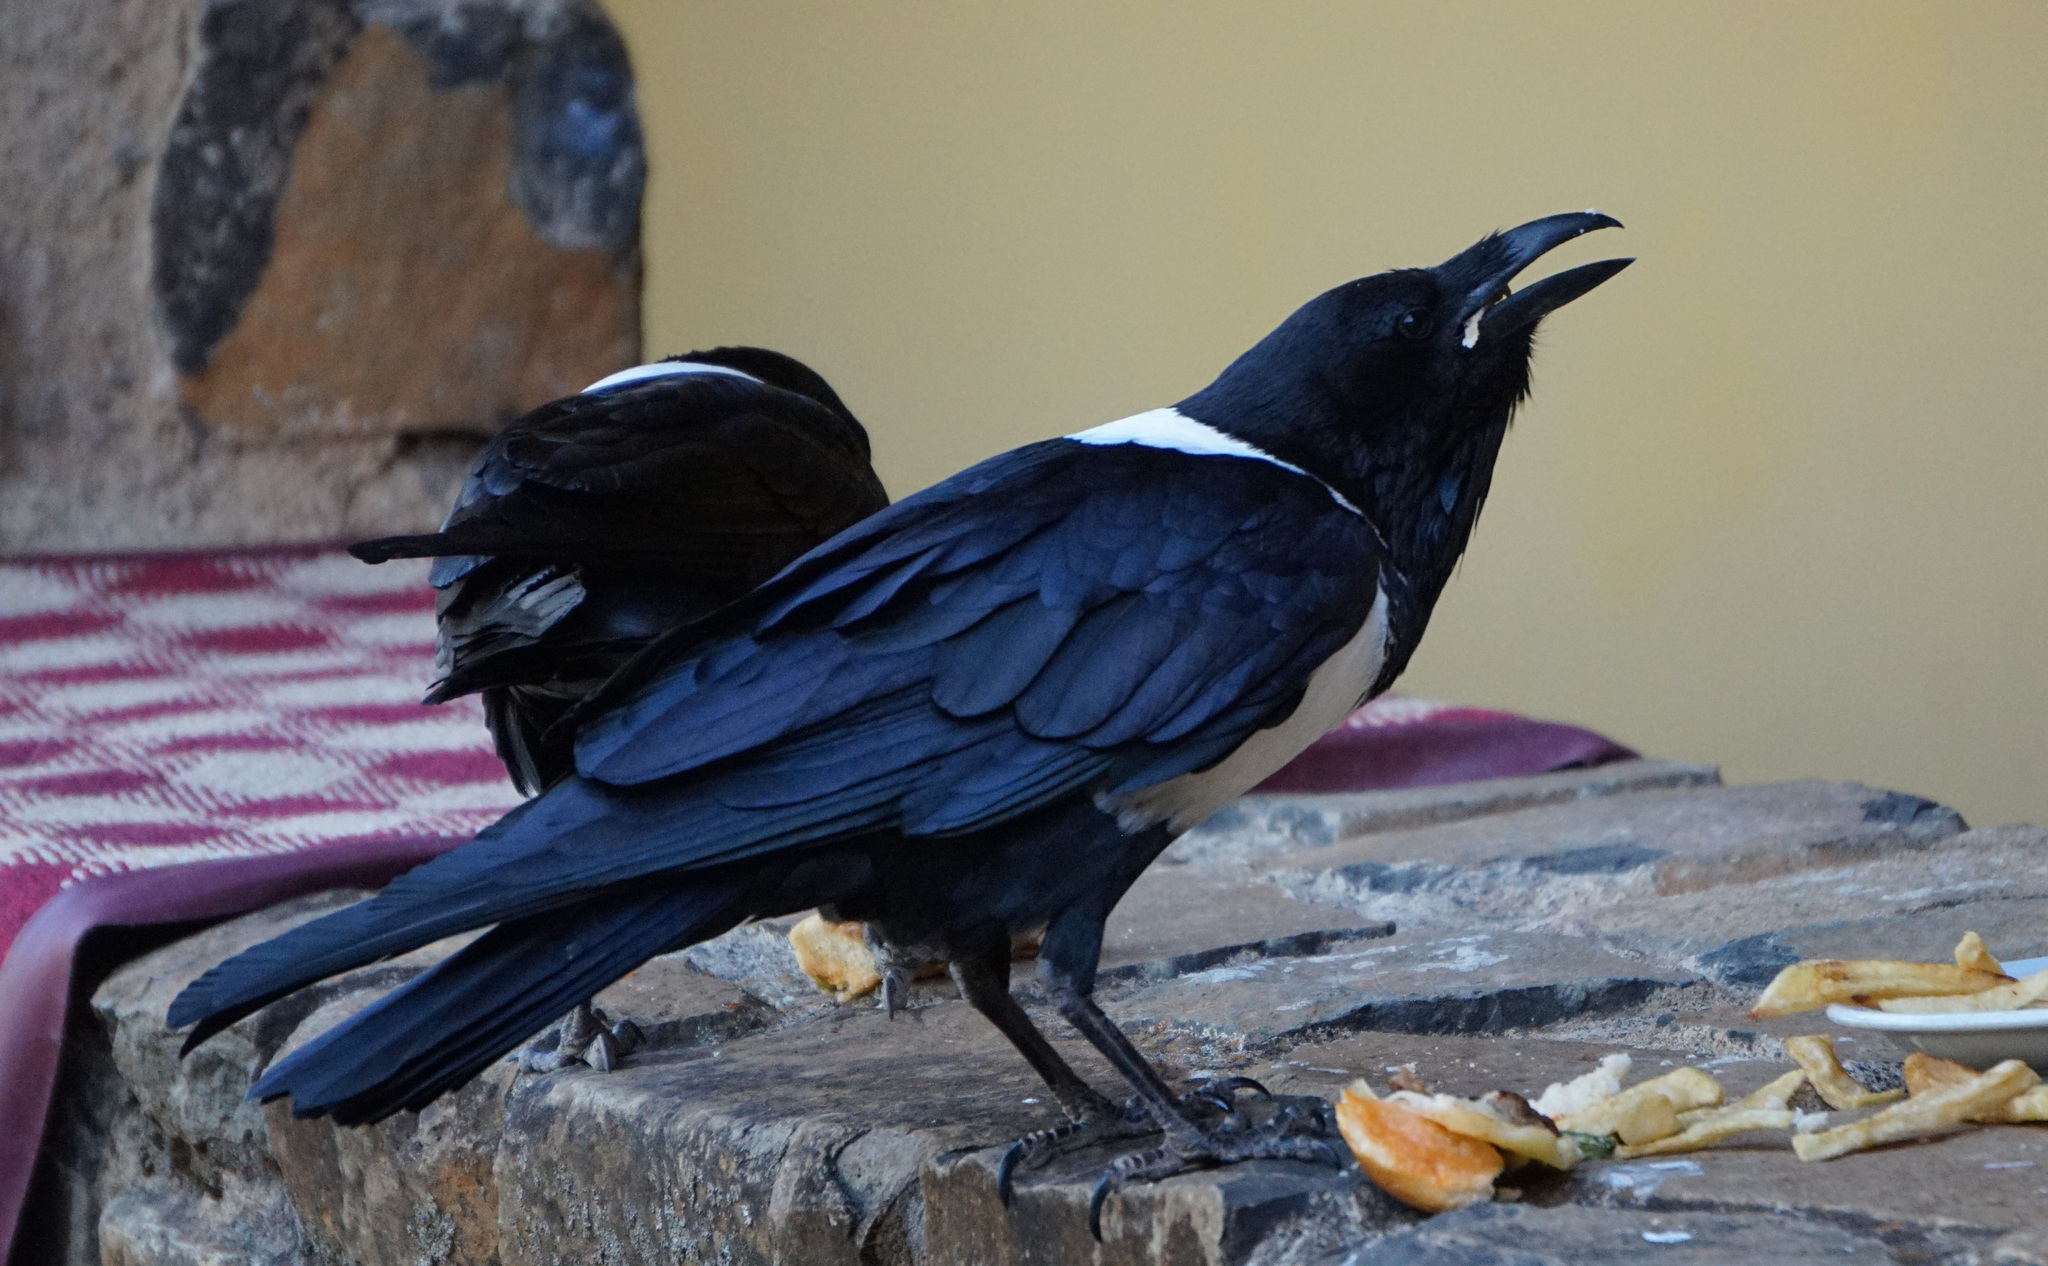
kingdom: Animalia
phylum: Chordata
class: Aves
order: Passeriformes
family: Corvidae
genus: Corvus
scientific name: Corvus albus
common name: Pied crow
